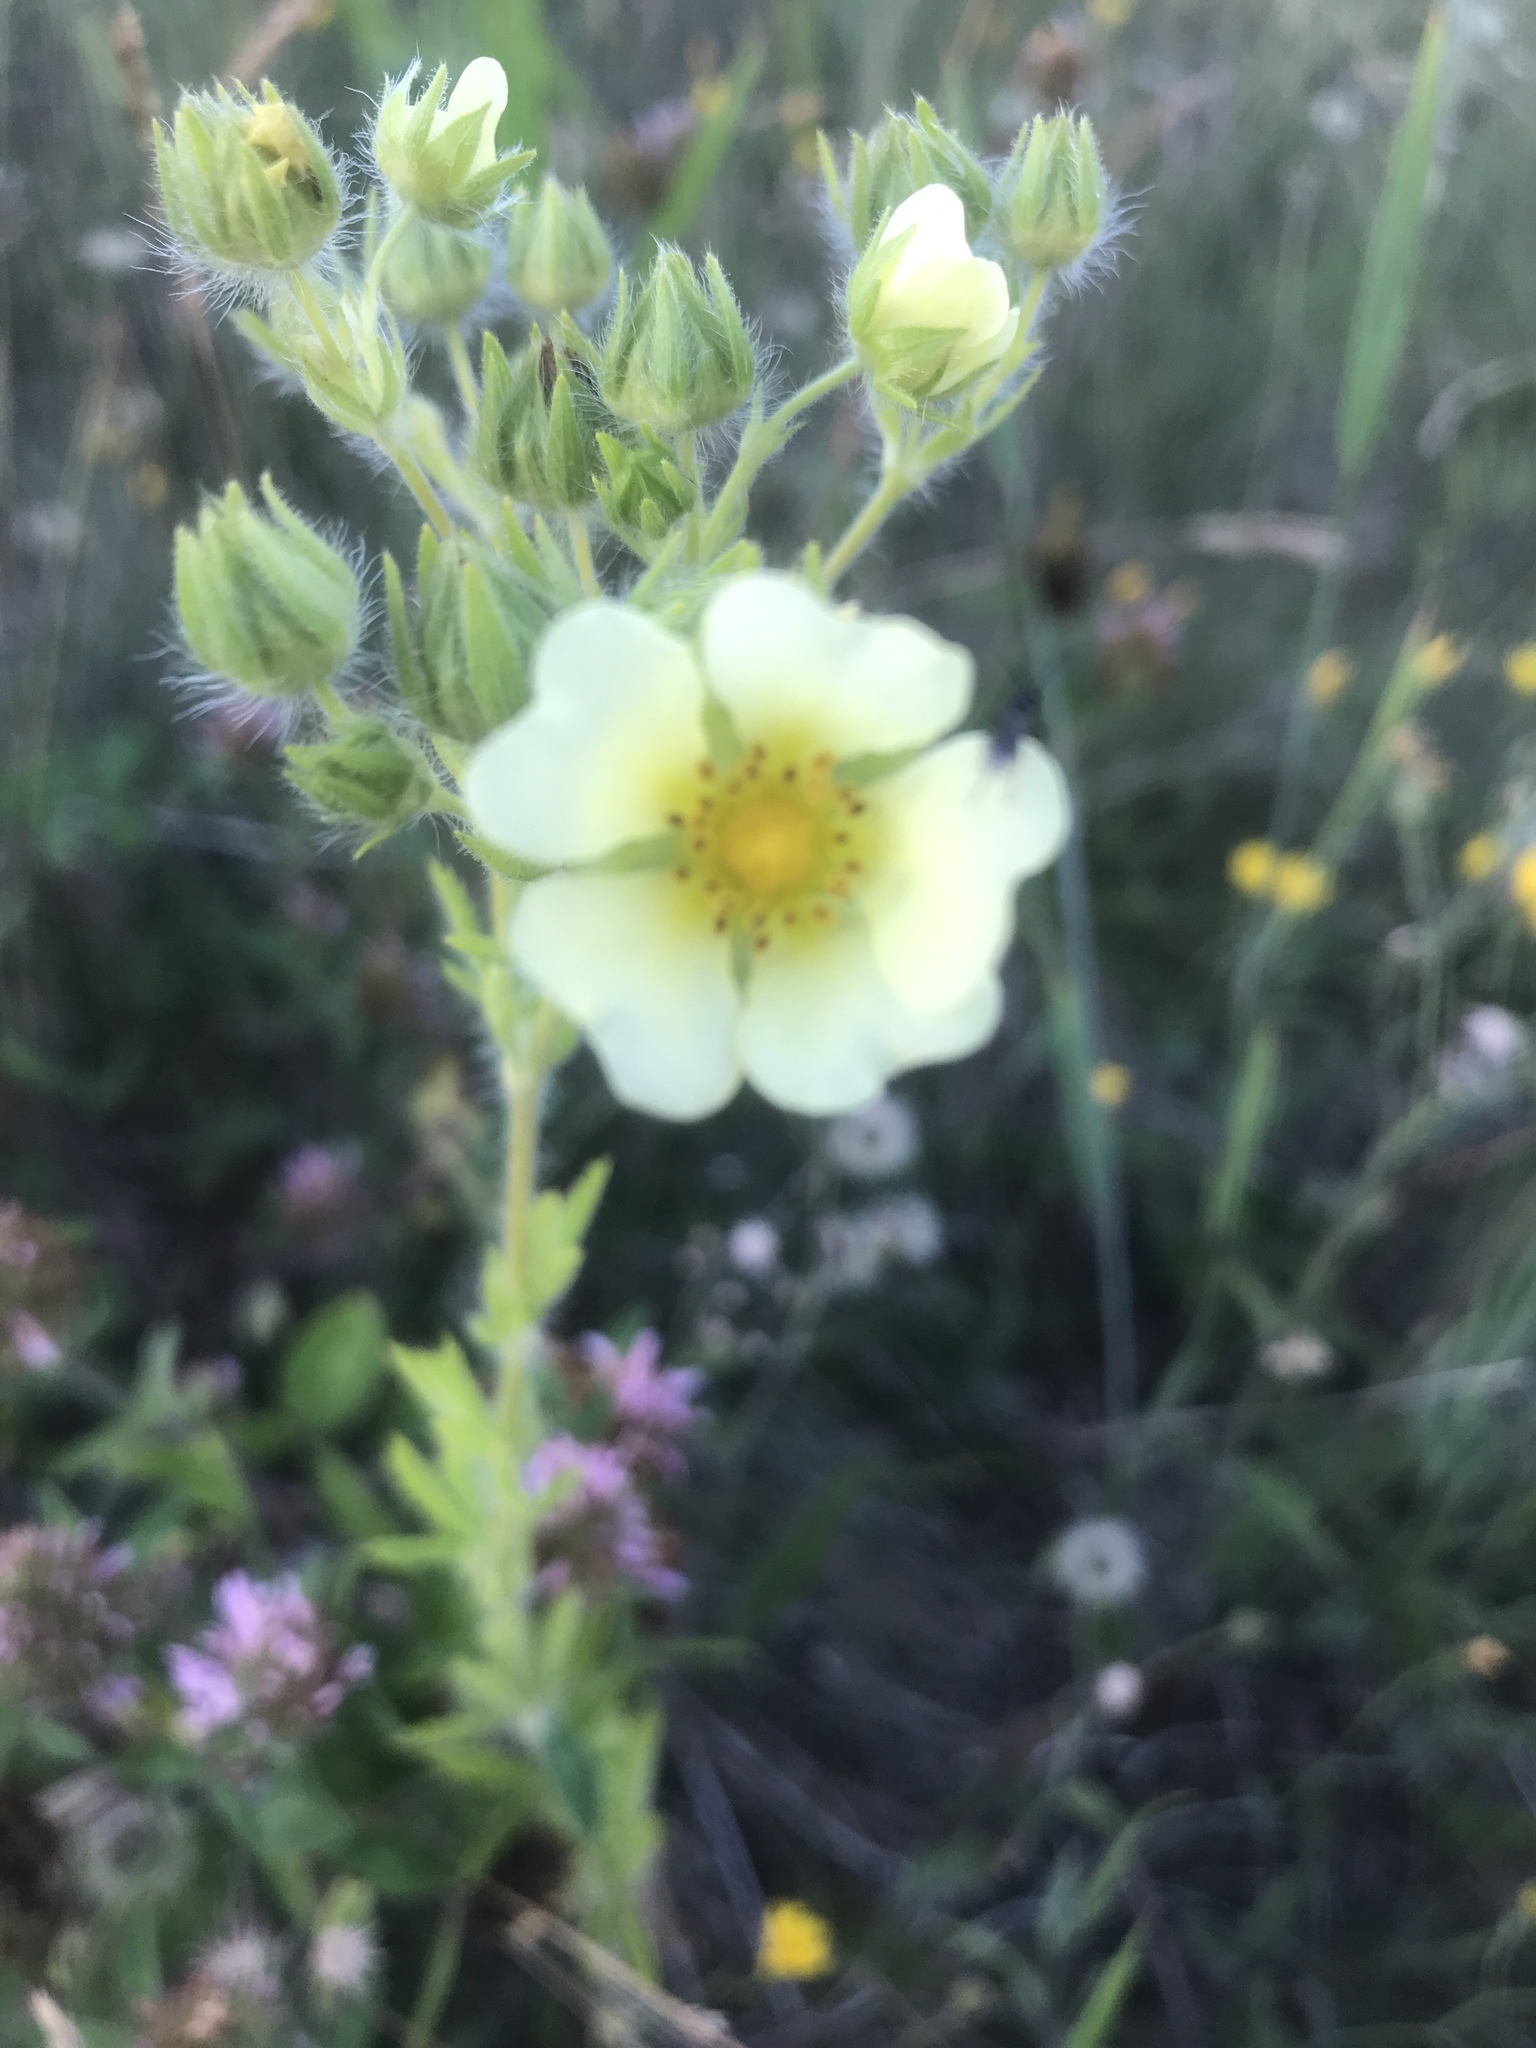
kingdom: Plantae
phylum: Tracheophyta
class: Magnoliopsida
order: Rosales
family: Rosaceae
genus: Potentilla
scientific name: Potentilla recta
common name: Sulphur cinquefoil
